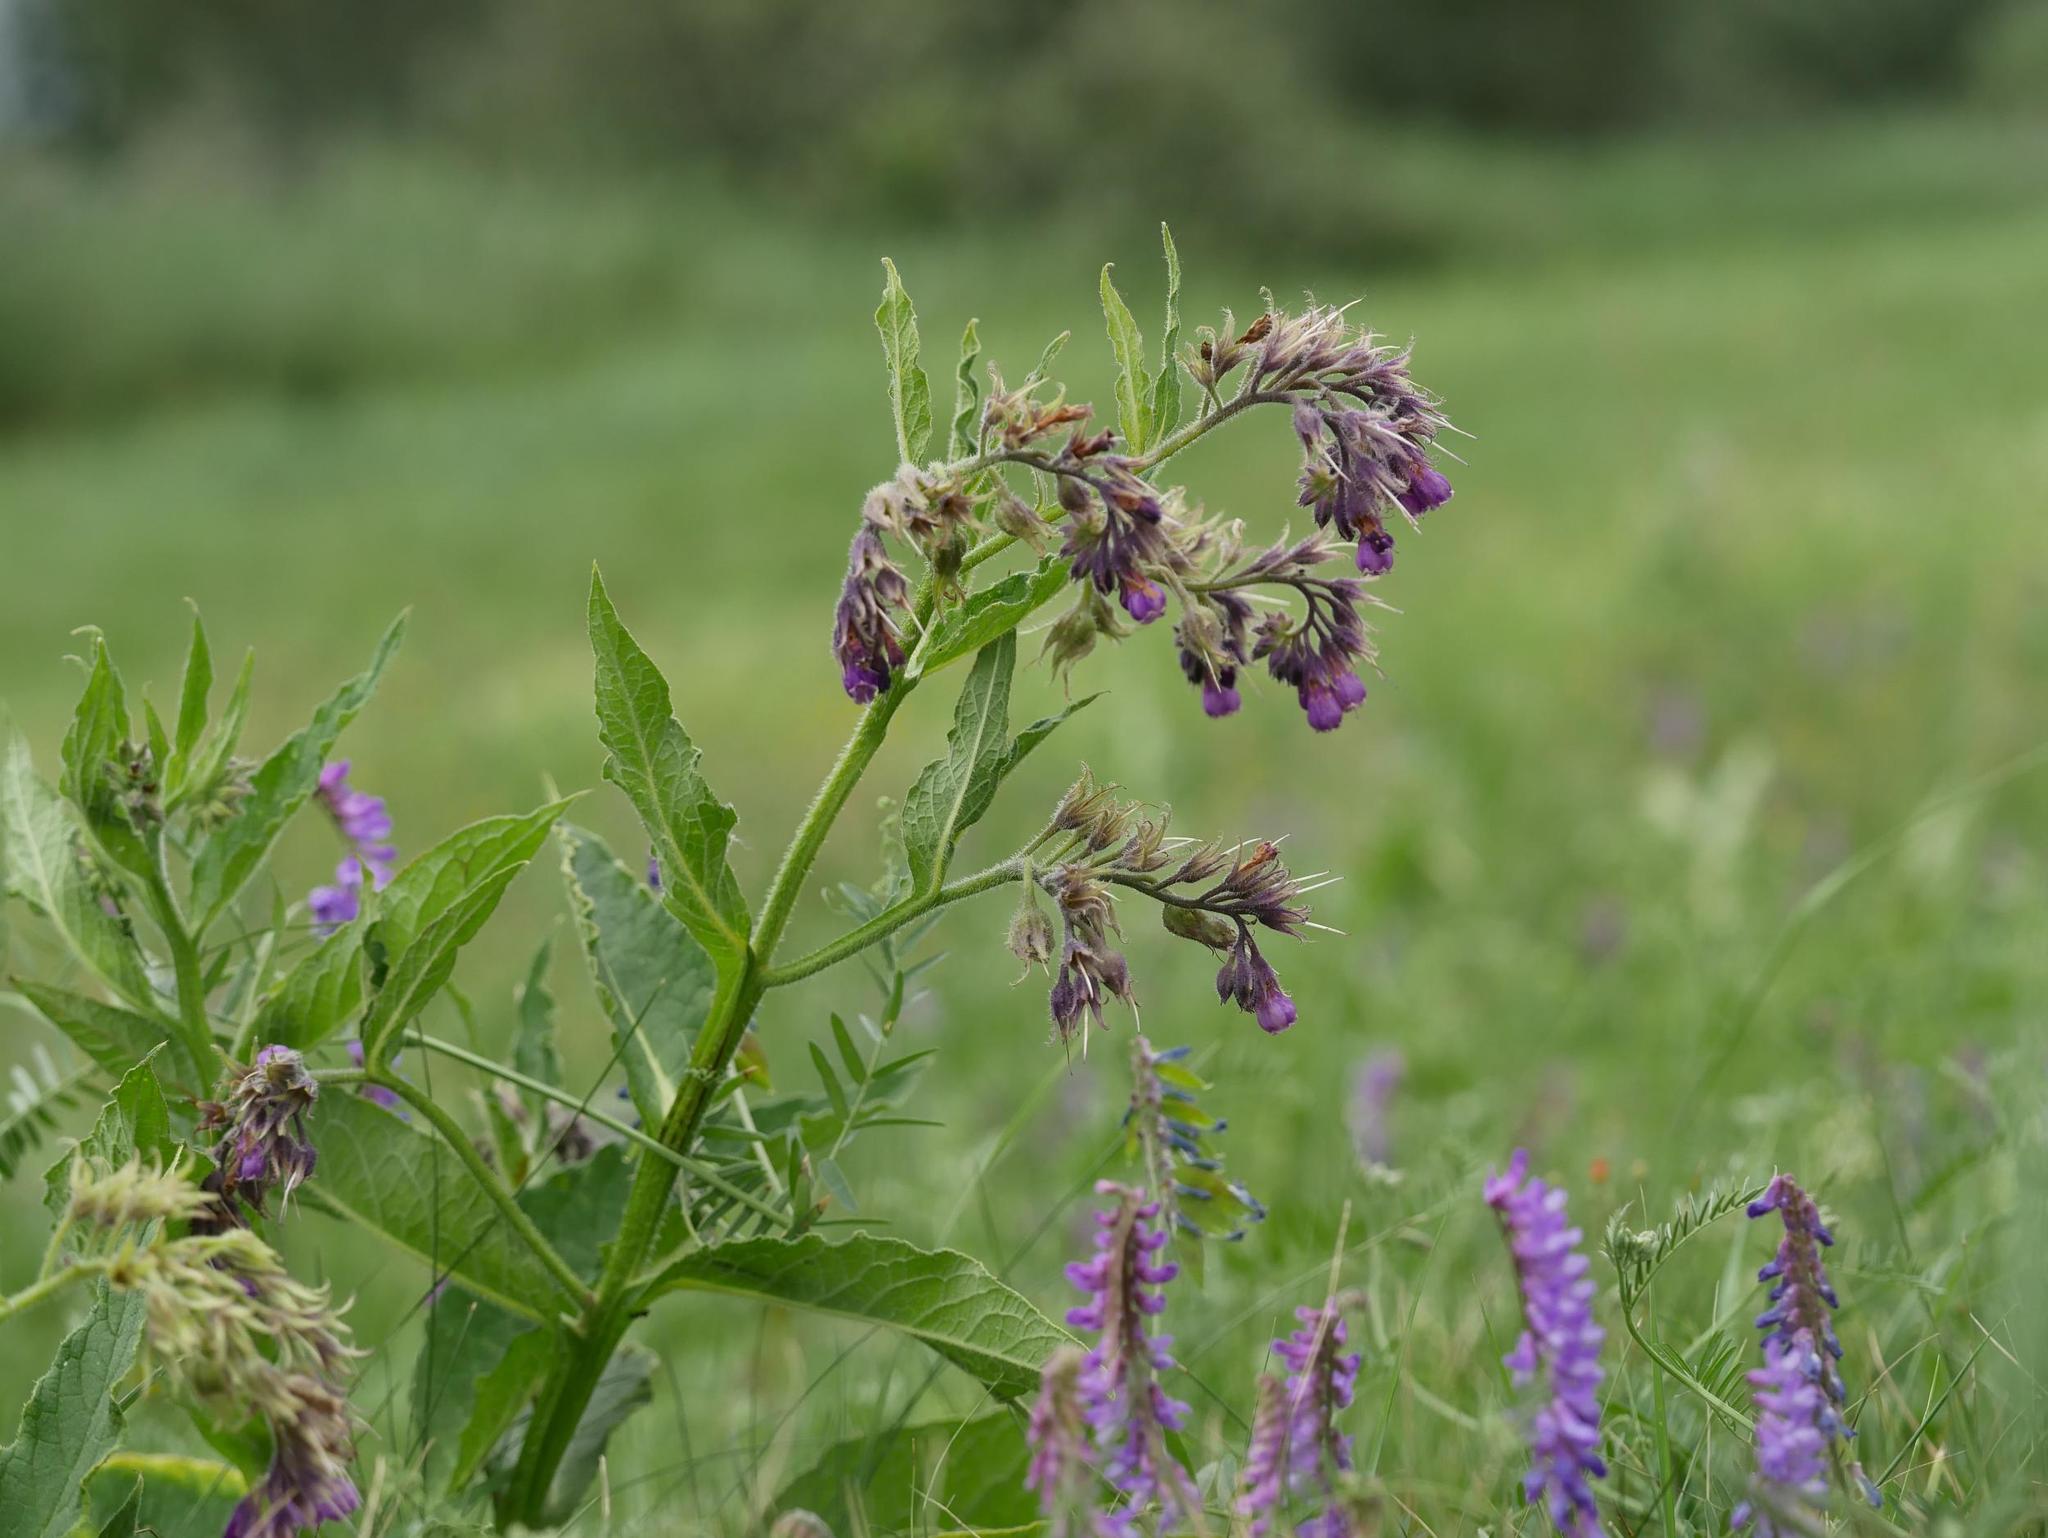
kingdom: Plantae
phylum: Tracheophyta
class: Magnoliopsida
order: Boraginales
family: Boraginaceae
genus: Symphytum
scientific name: Symphytum officinale
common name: Common comfrey
